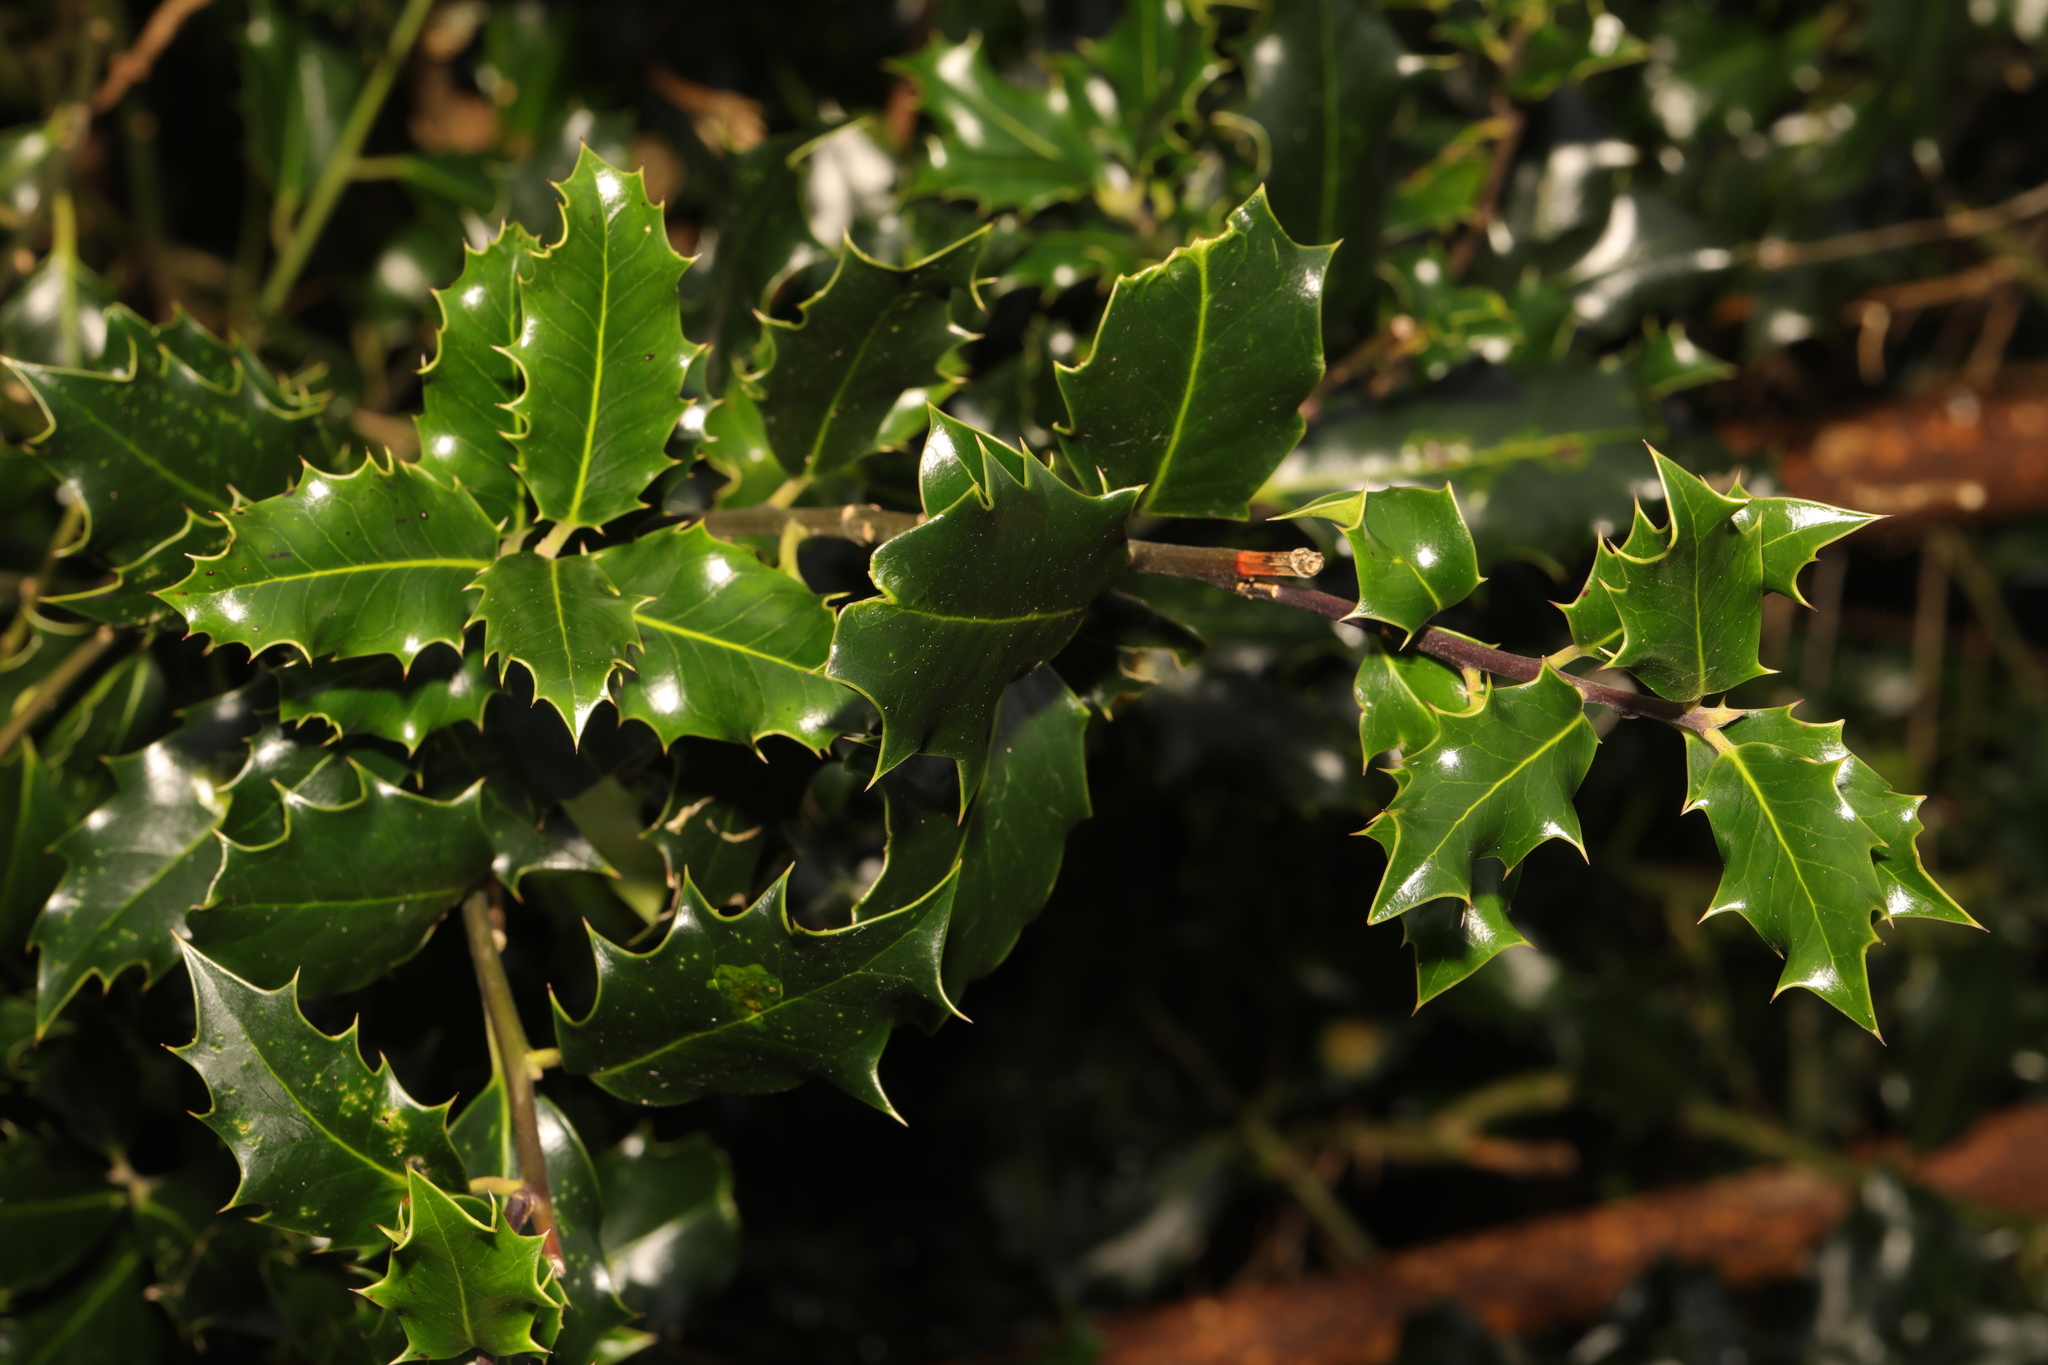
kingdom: Plantae
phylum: Tracheophyta
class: Magnoliopsida
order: Aquifoliales
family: Aquifoliaceae
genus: Ilex
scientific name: Ilex aquifolium
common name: English holly
